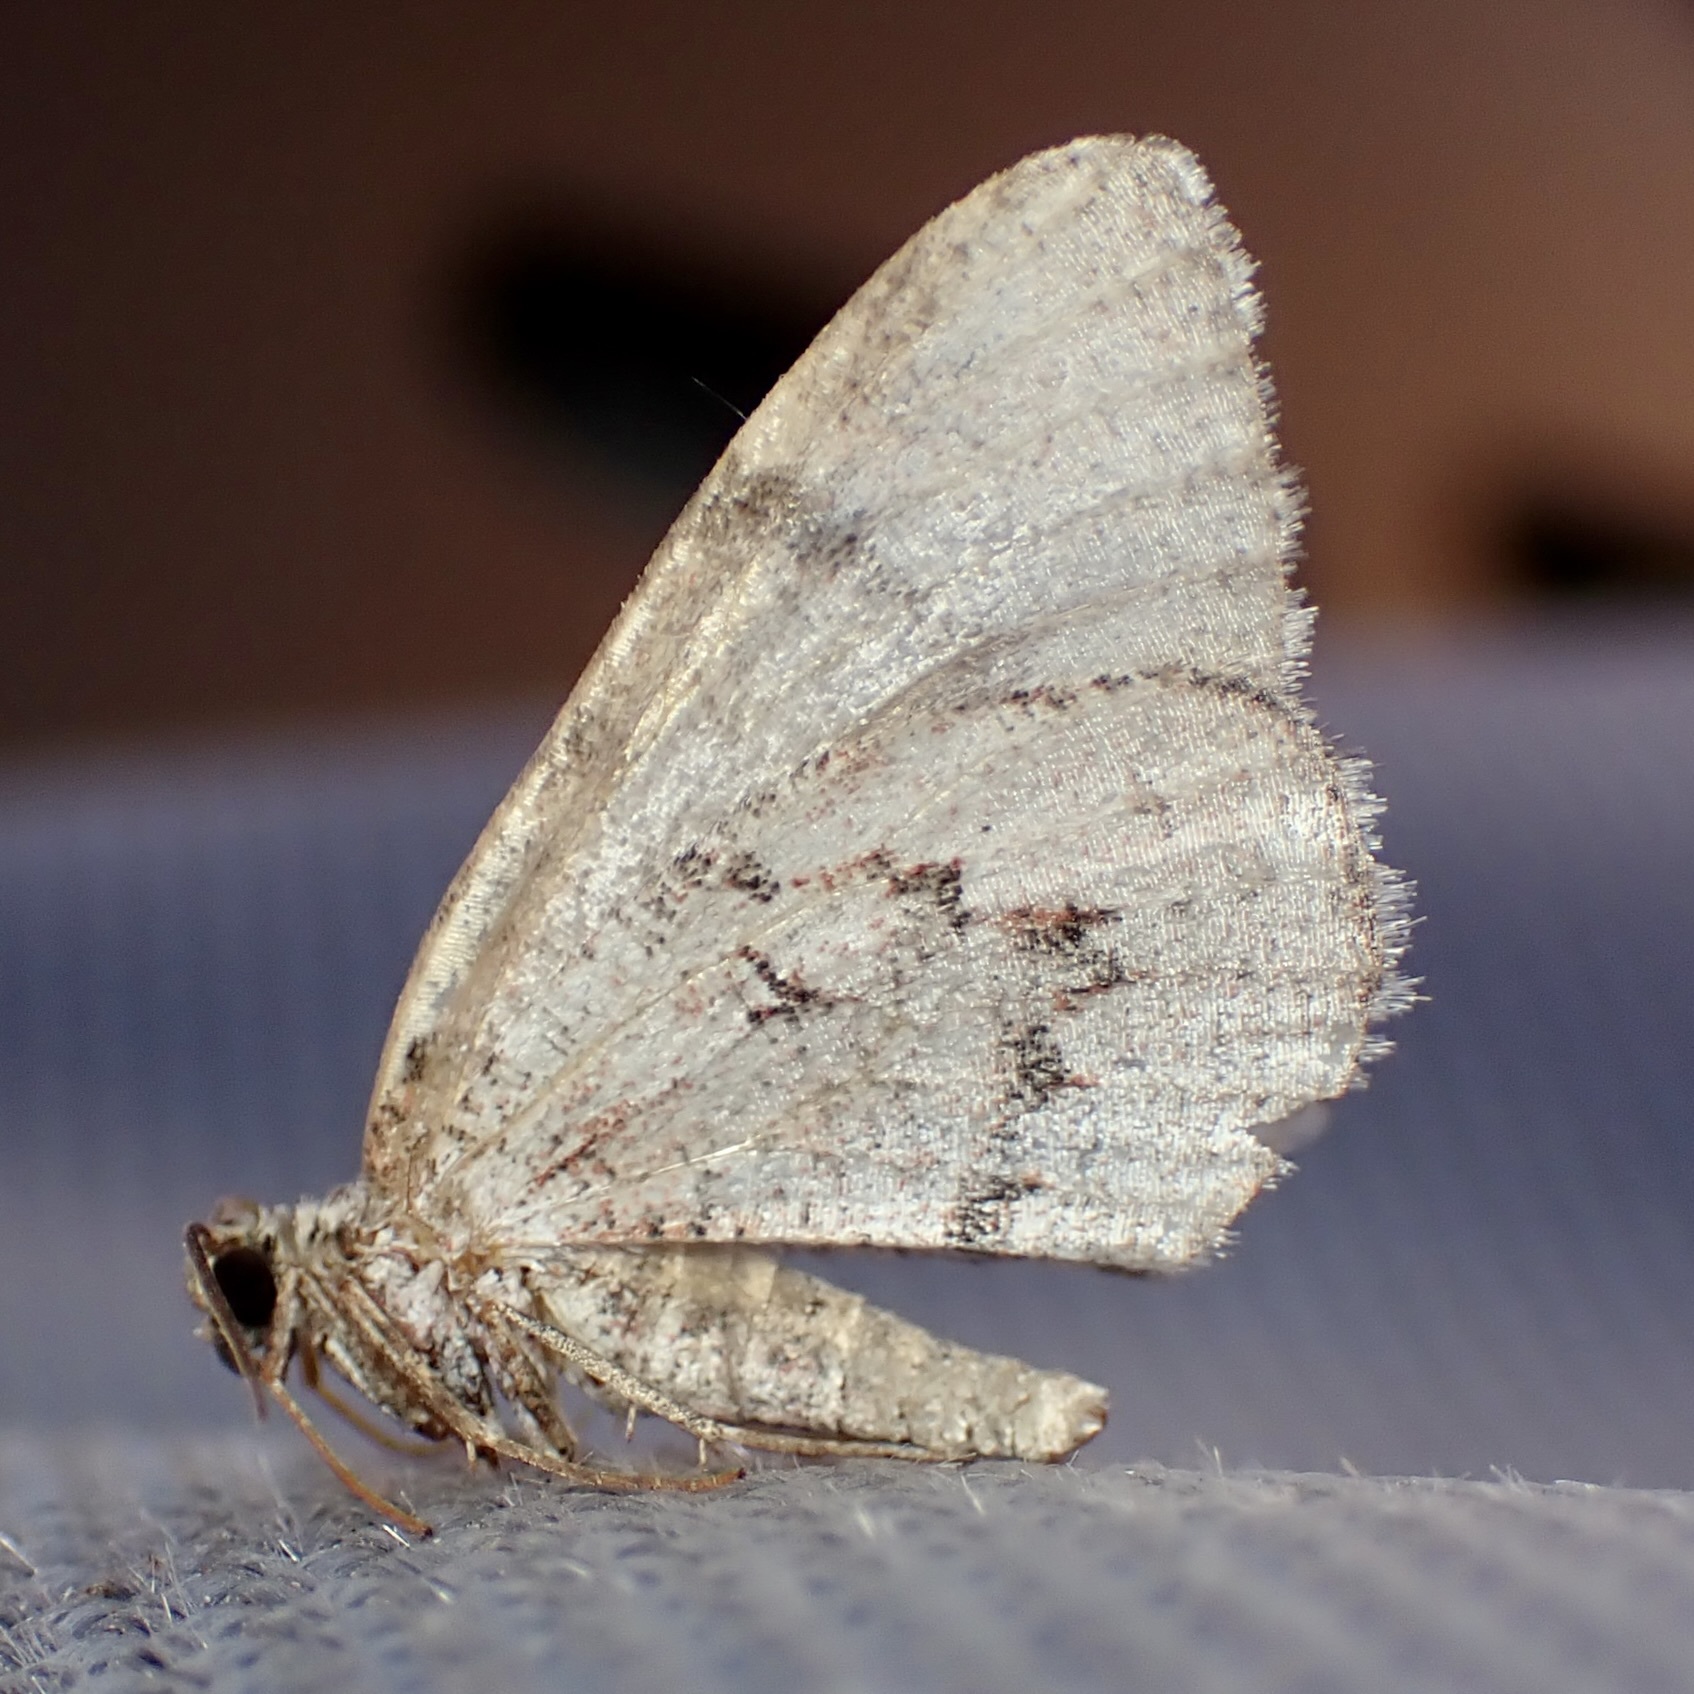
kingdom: Animalia
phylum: Arthropoda
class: Insecta
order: Lepidoptera
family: Geometridae
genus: Stamnodes
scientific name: Stamnodes modocata
